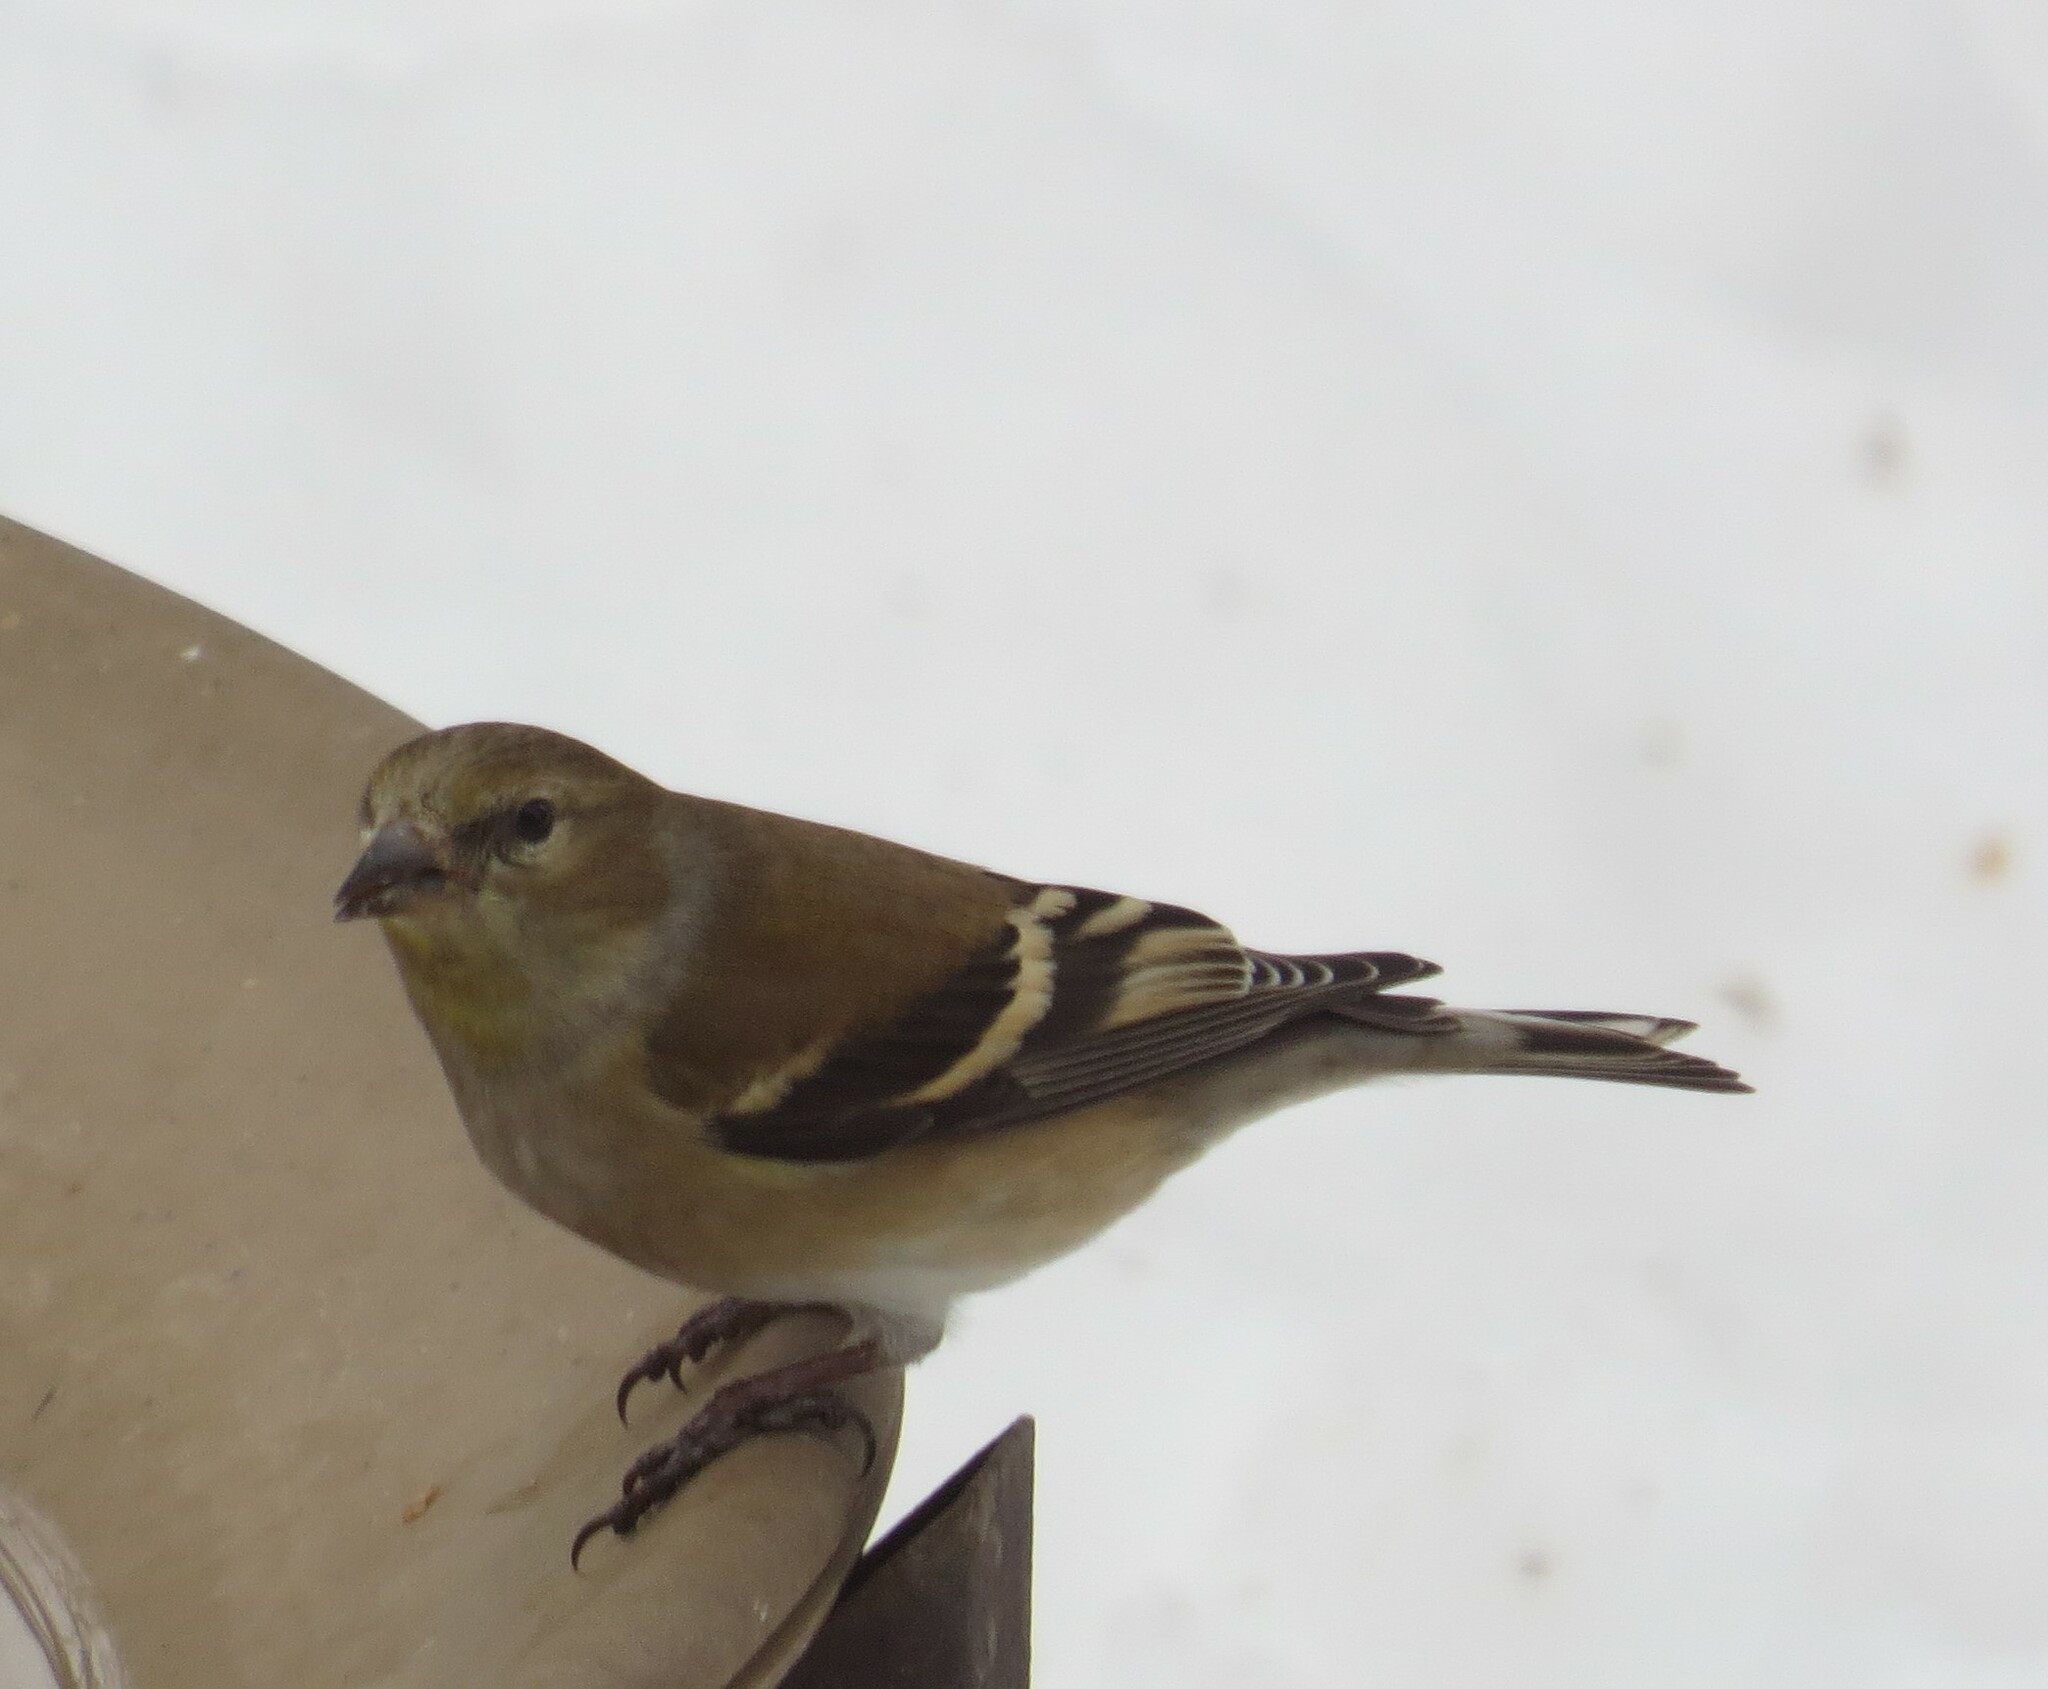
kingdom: Animalia
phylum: Chordata
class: Aves
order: Passeriformes
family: Fringillidae
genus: Spinus
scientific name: Spinus tristis
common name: American goldfinch
